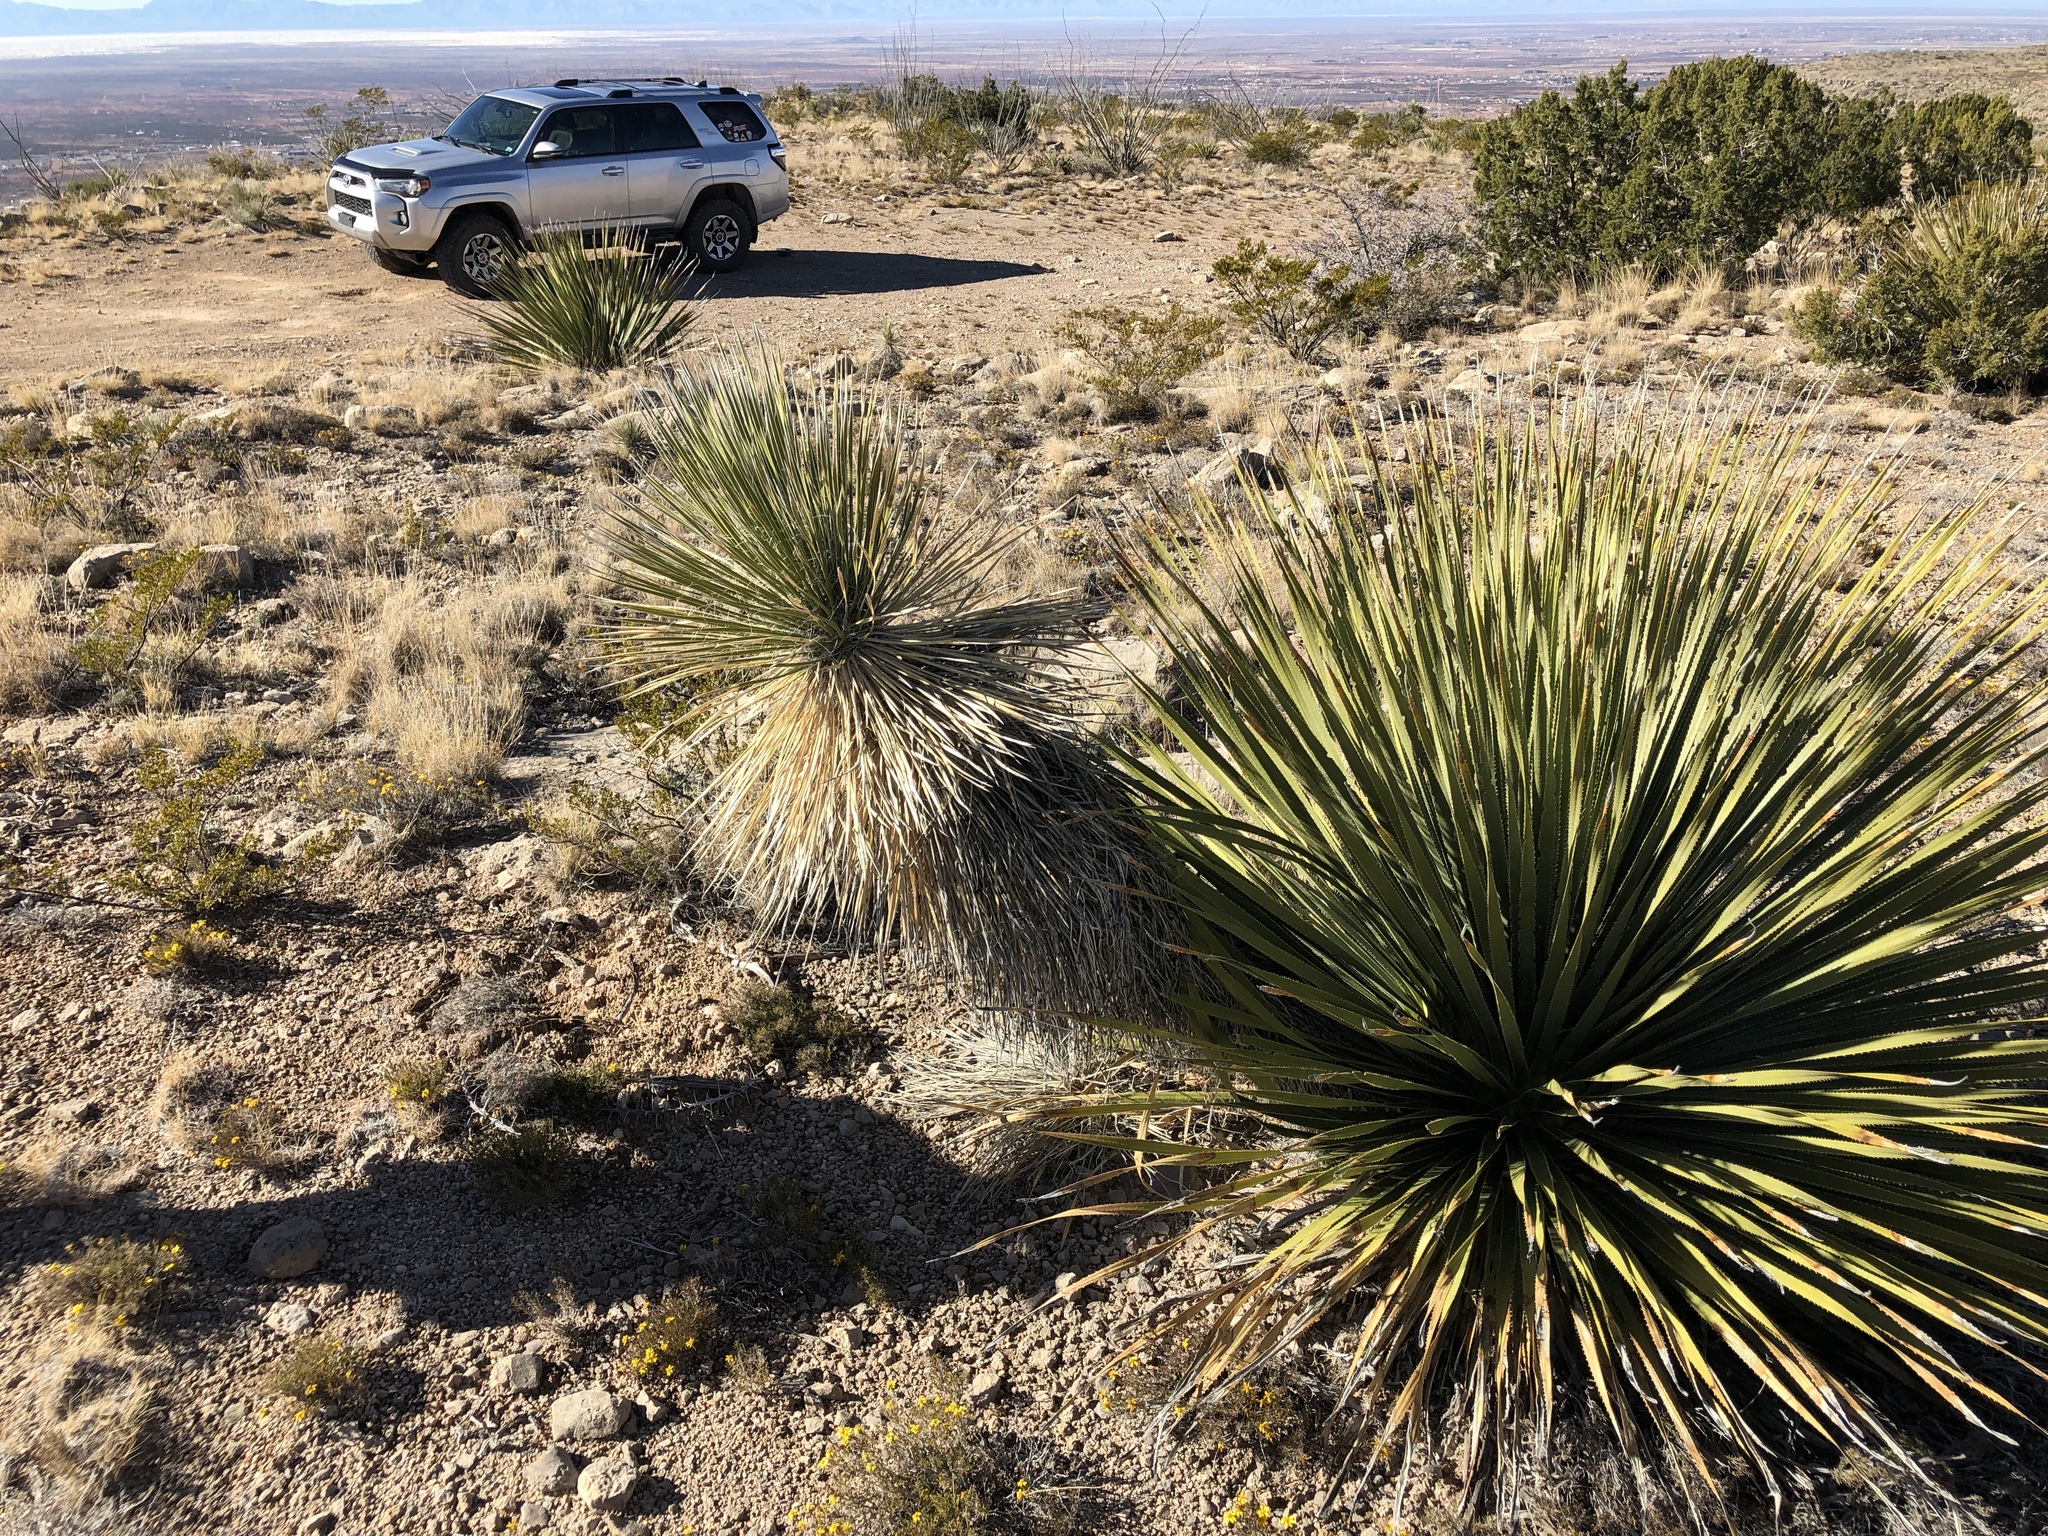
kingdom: Plantae
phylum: Tracheophyta
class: Liliopsida
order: Asparagales
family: Asparagaceae
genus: Dasylirion
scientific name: Dasylirion wheeleri
